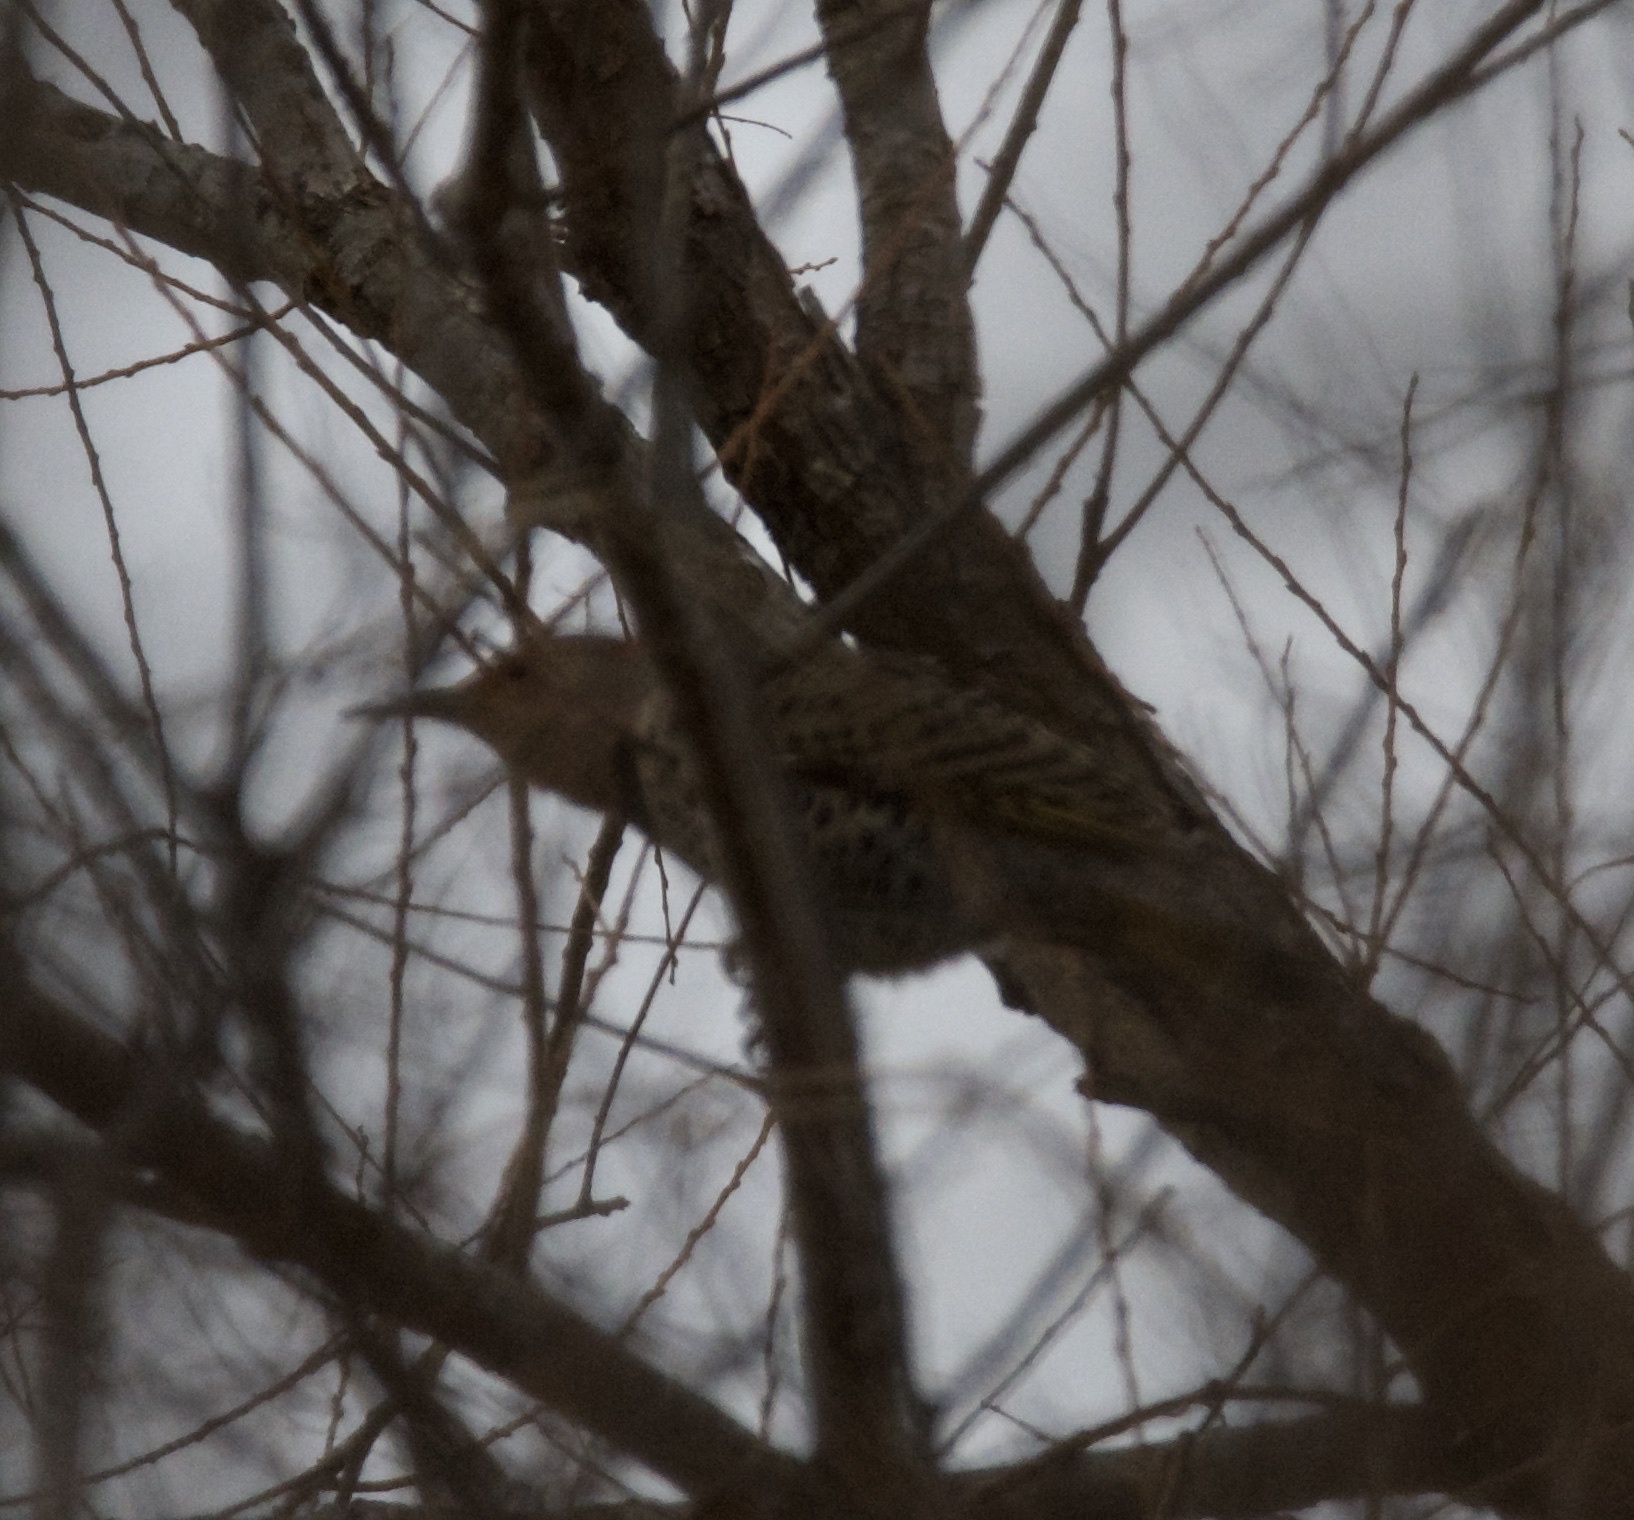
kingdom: Animalia
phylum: Chordata
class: Aves
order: Piciformes
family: Picidae
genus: Colaptes
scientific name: Colaptes auratus
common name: Northern flicker
